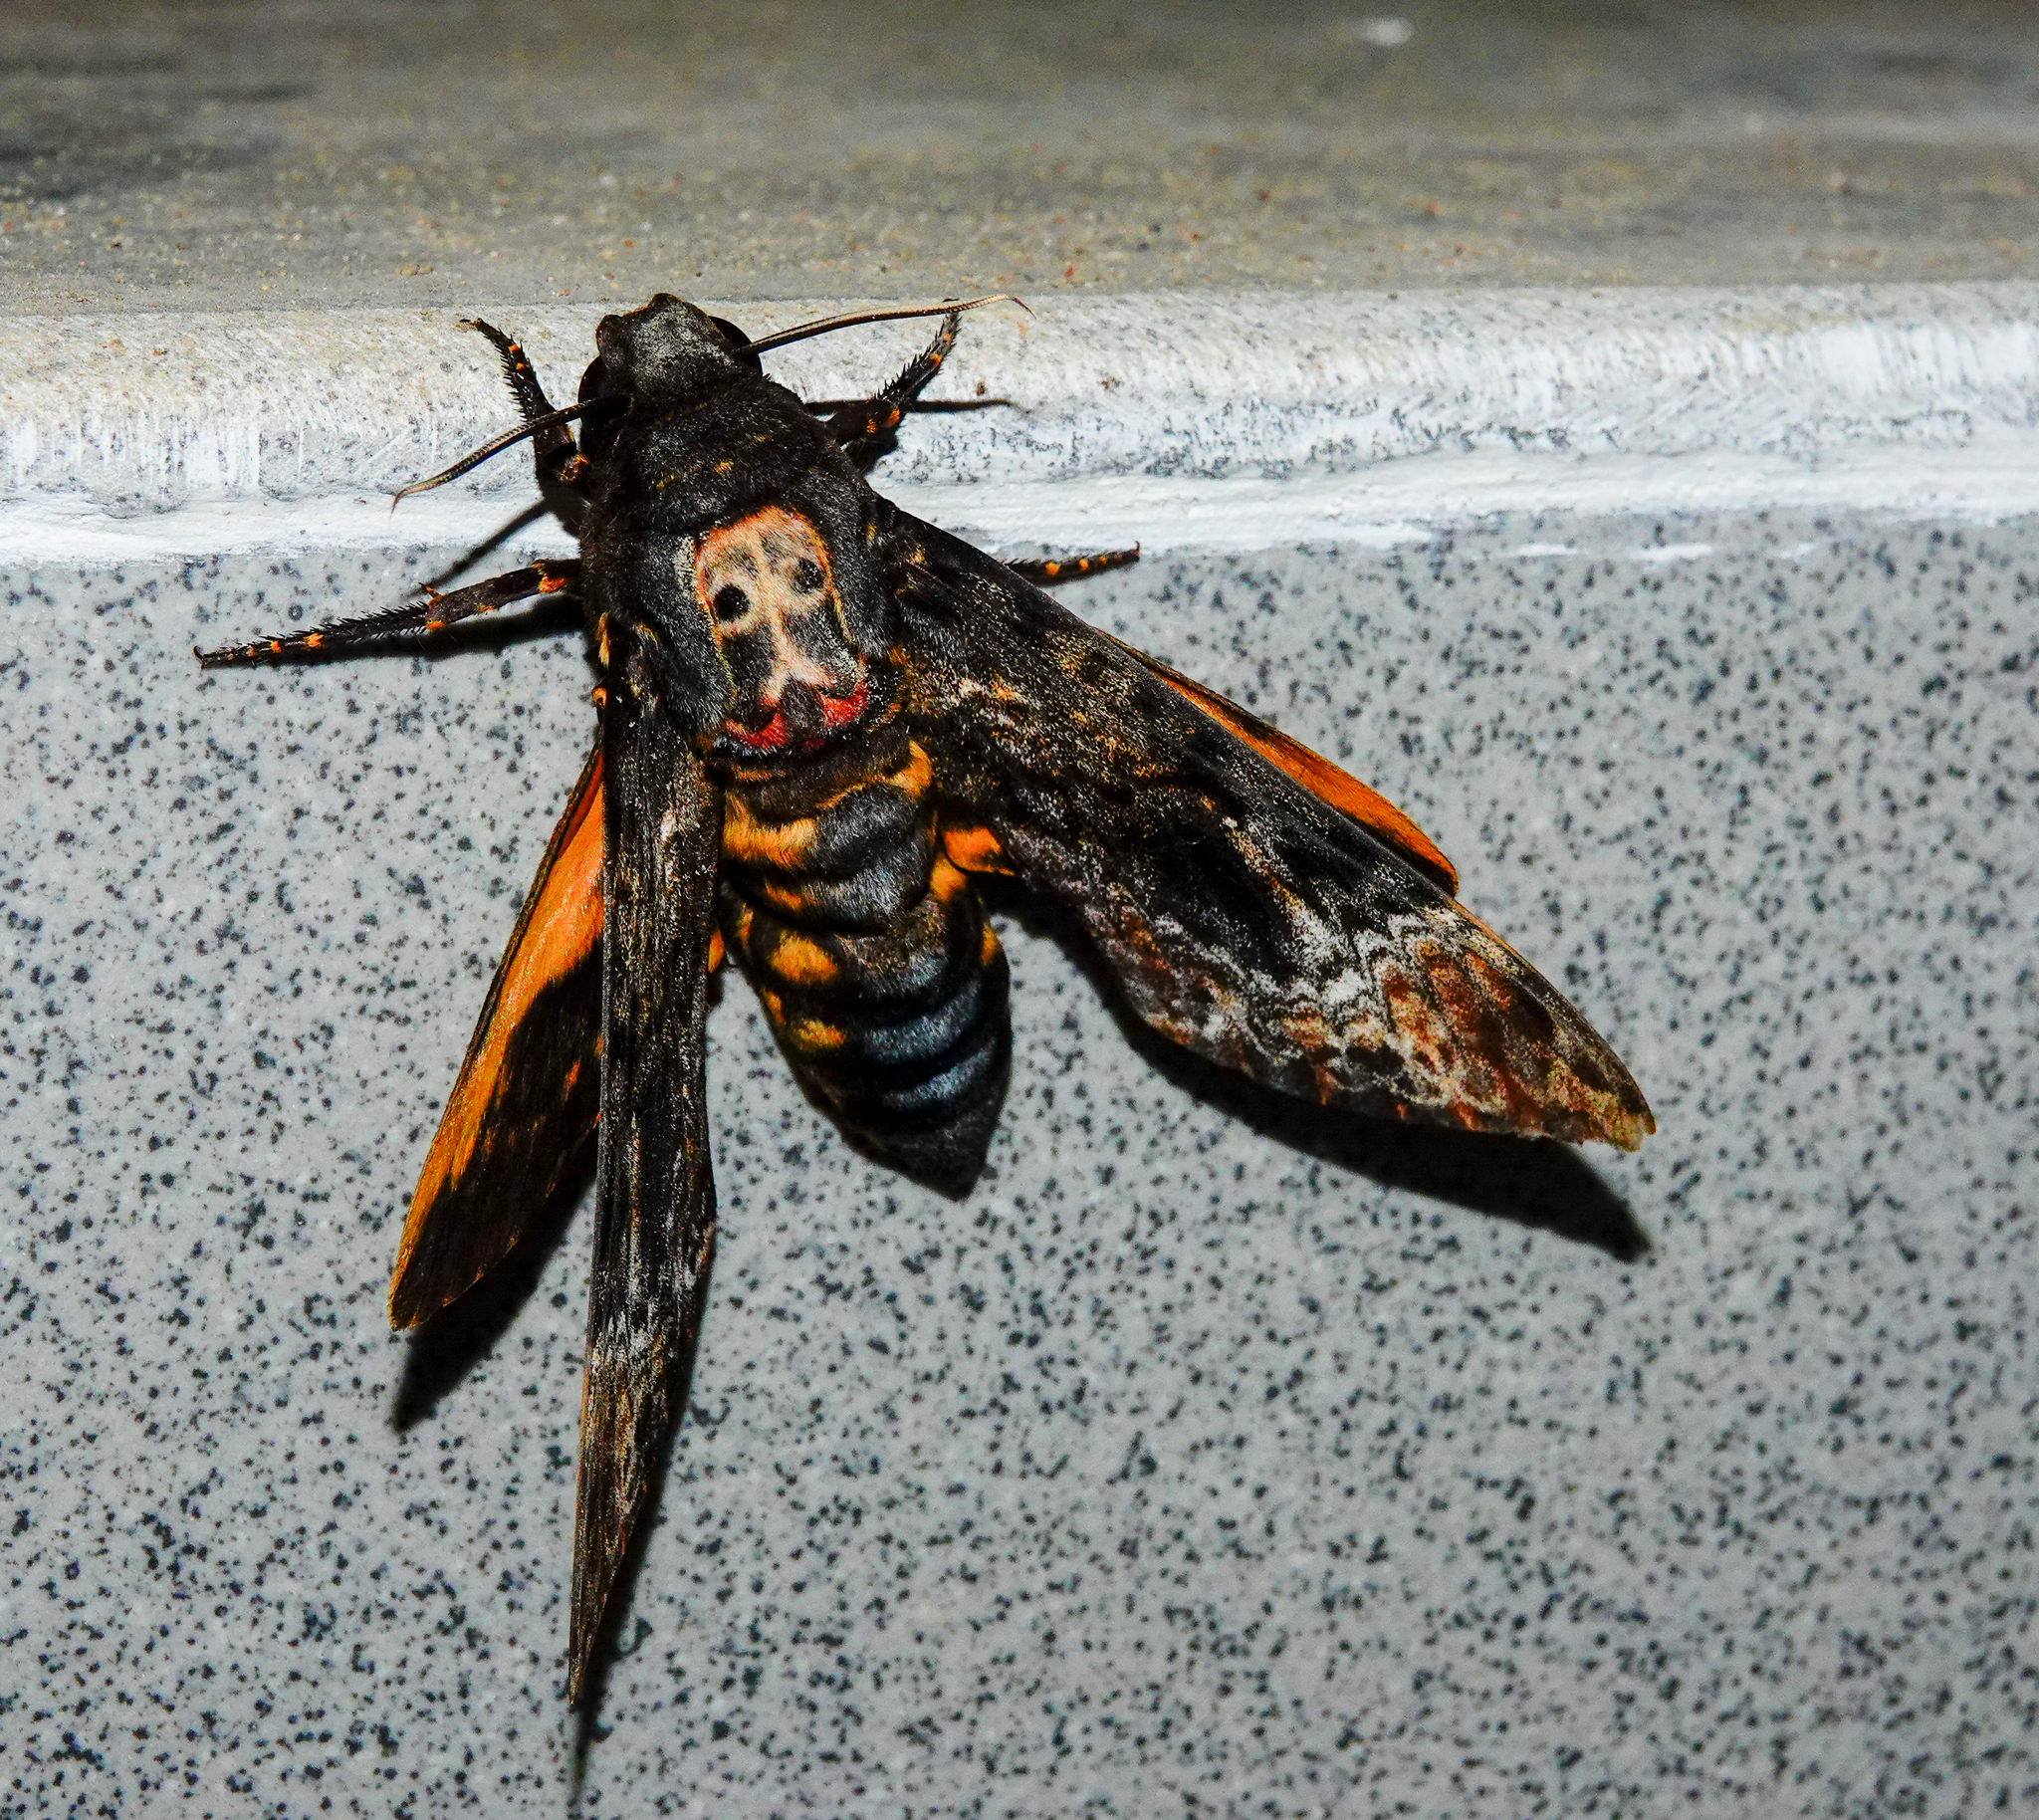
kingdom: Animalia
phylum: Arthropoda
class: Insecta
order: Lepidoptera
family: Sphingidae
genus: Acherontia
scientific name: Acherontia lachesis
